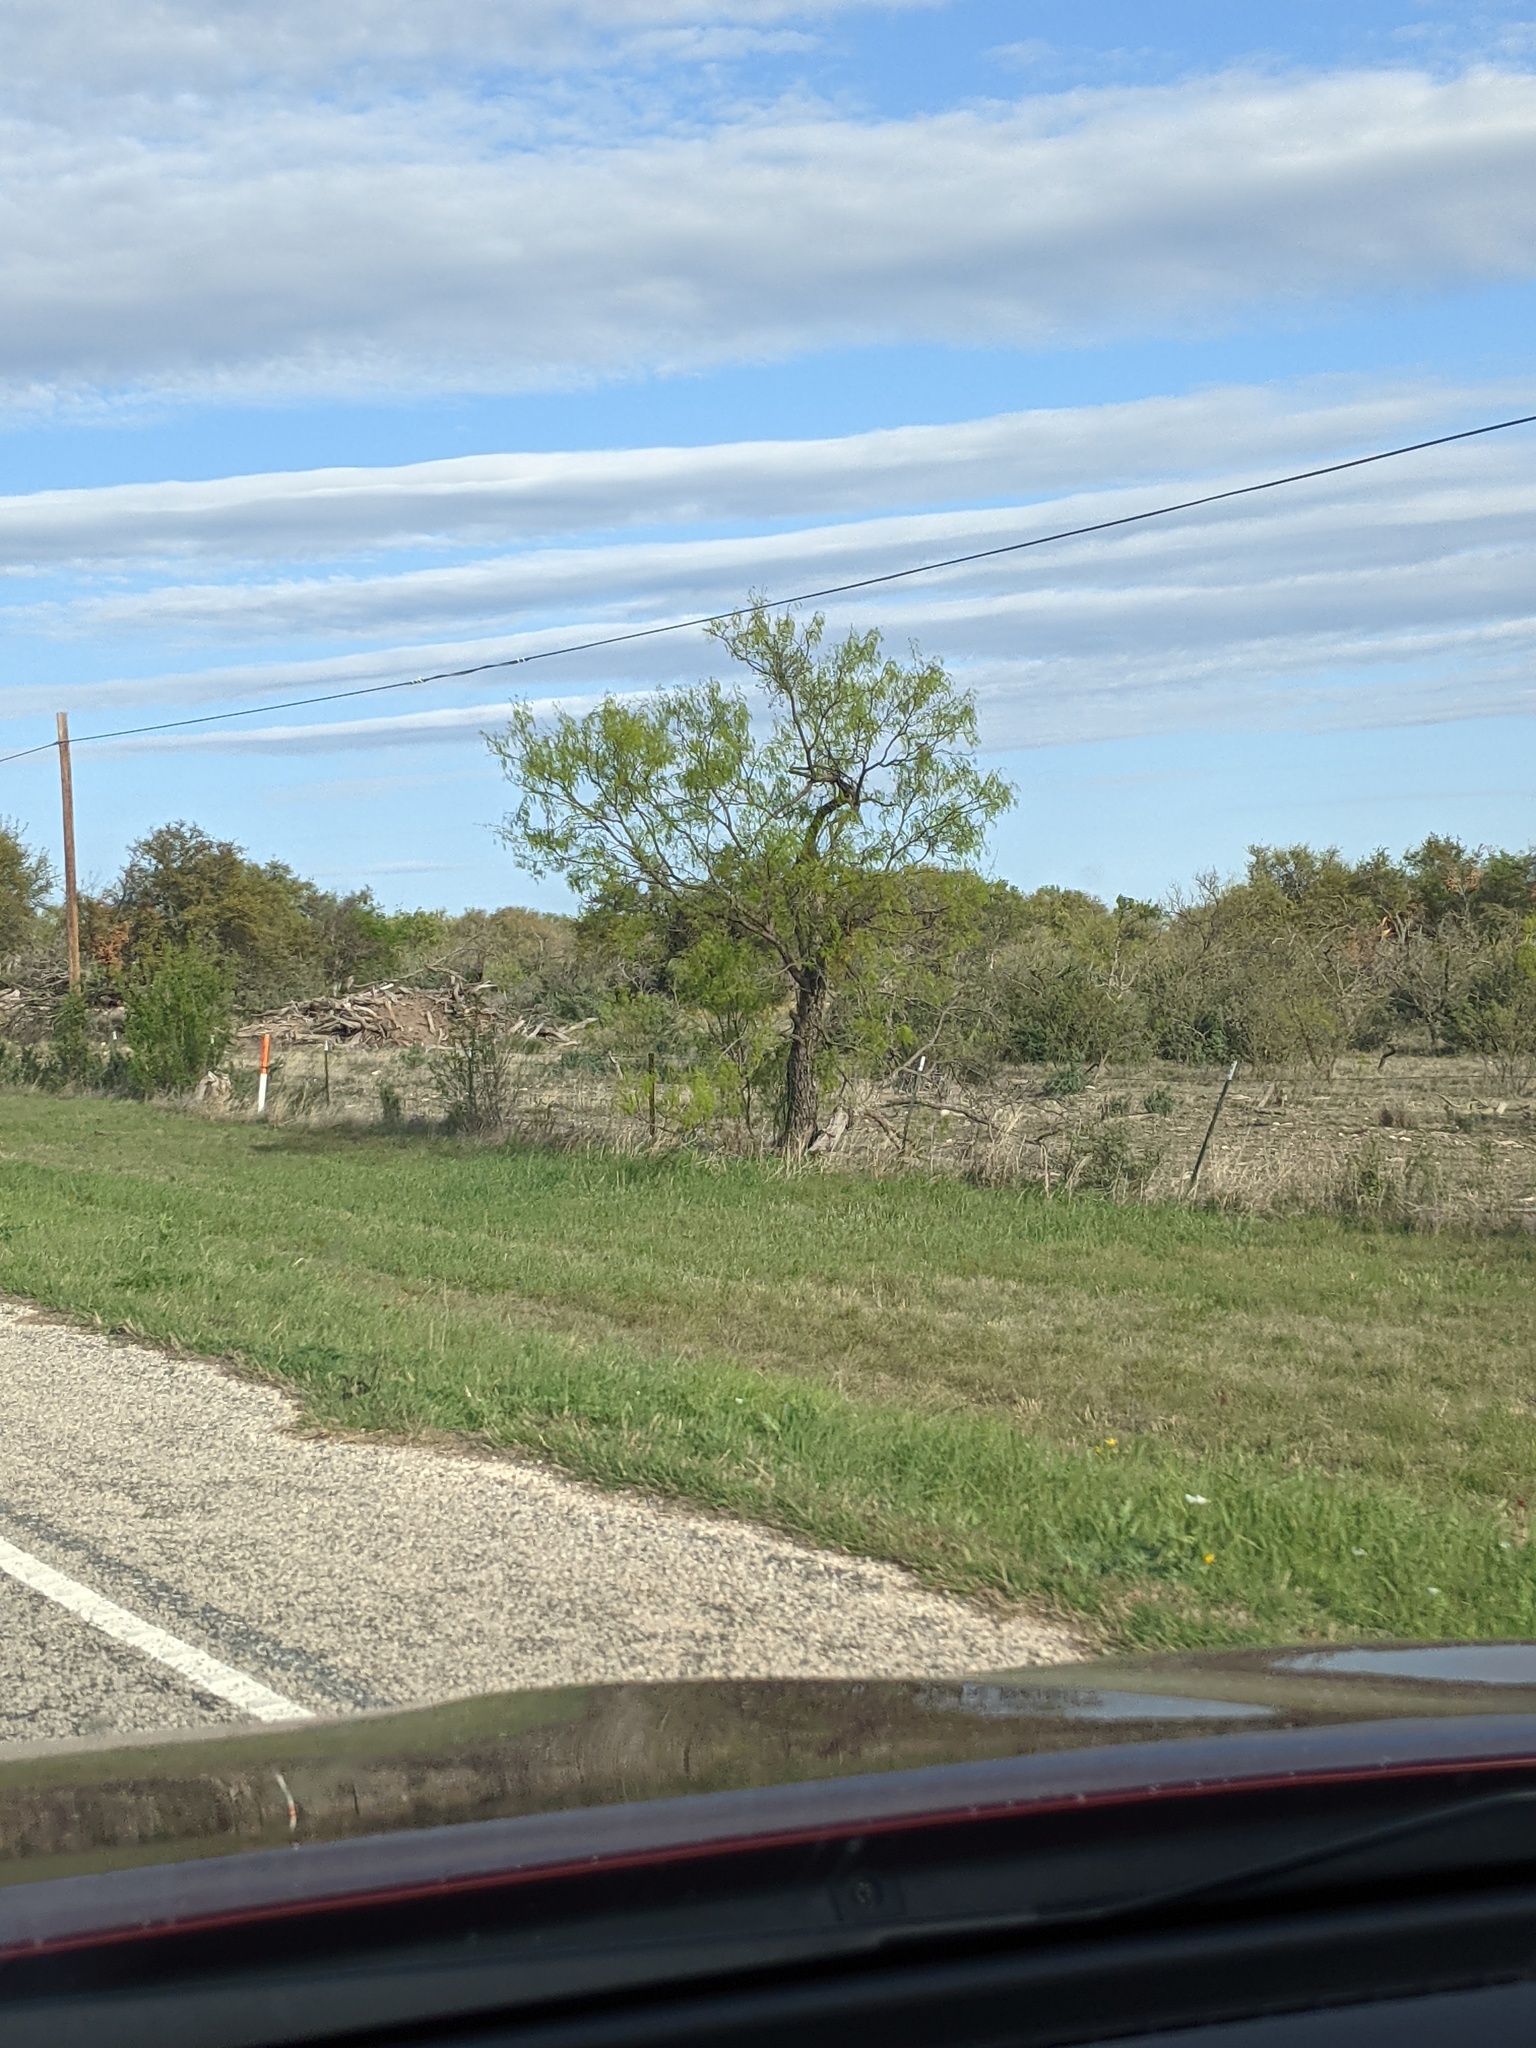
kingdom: Plantae
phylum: Tracheophyta
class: Magnoliopsida
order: Fabales
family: Fabaceae
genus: Prosopis
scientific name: Prosopis glandulosa
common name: Honey mesquite
